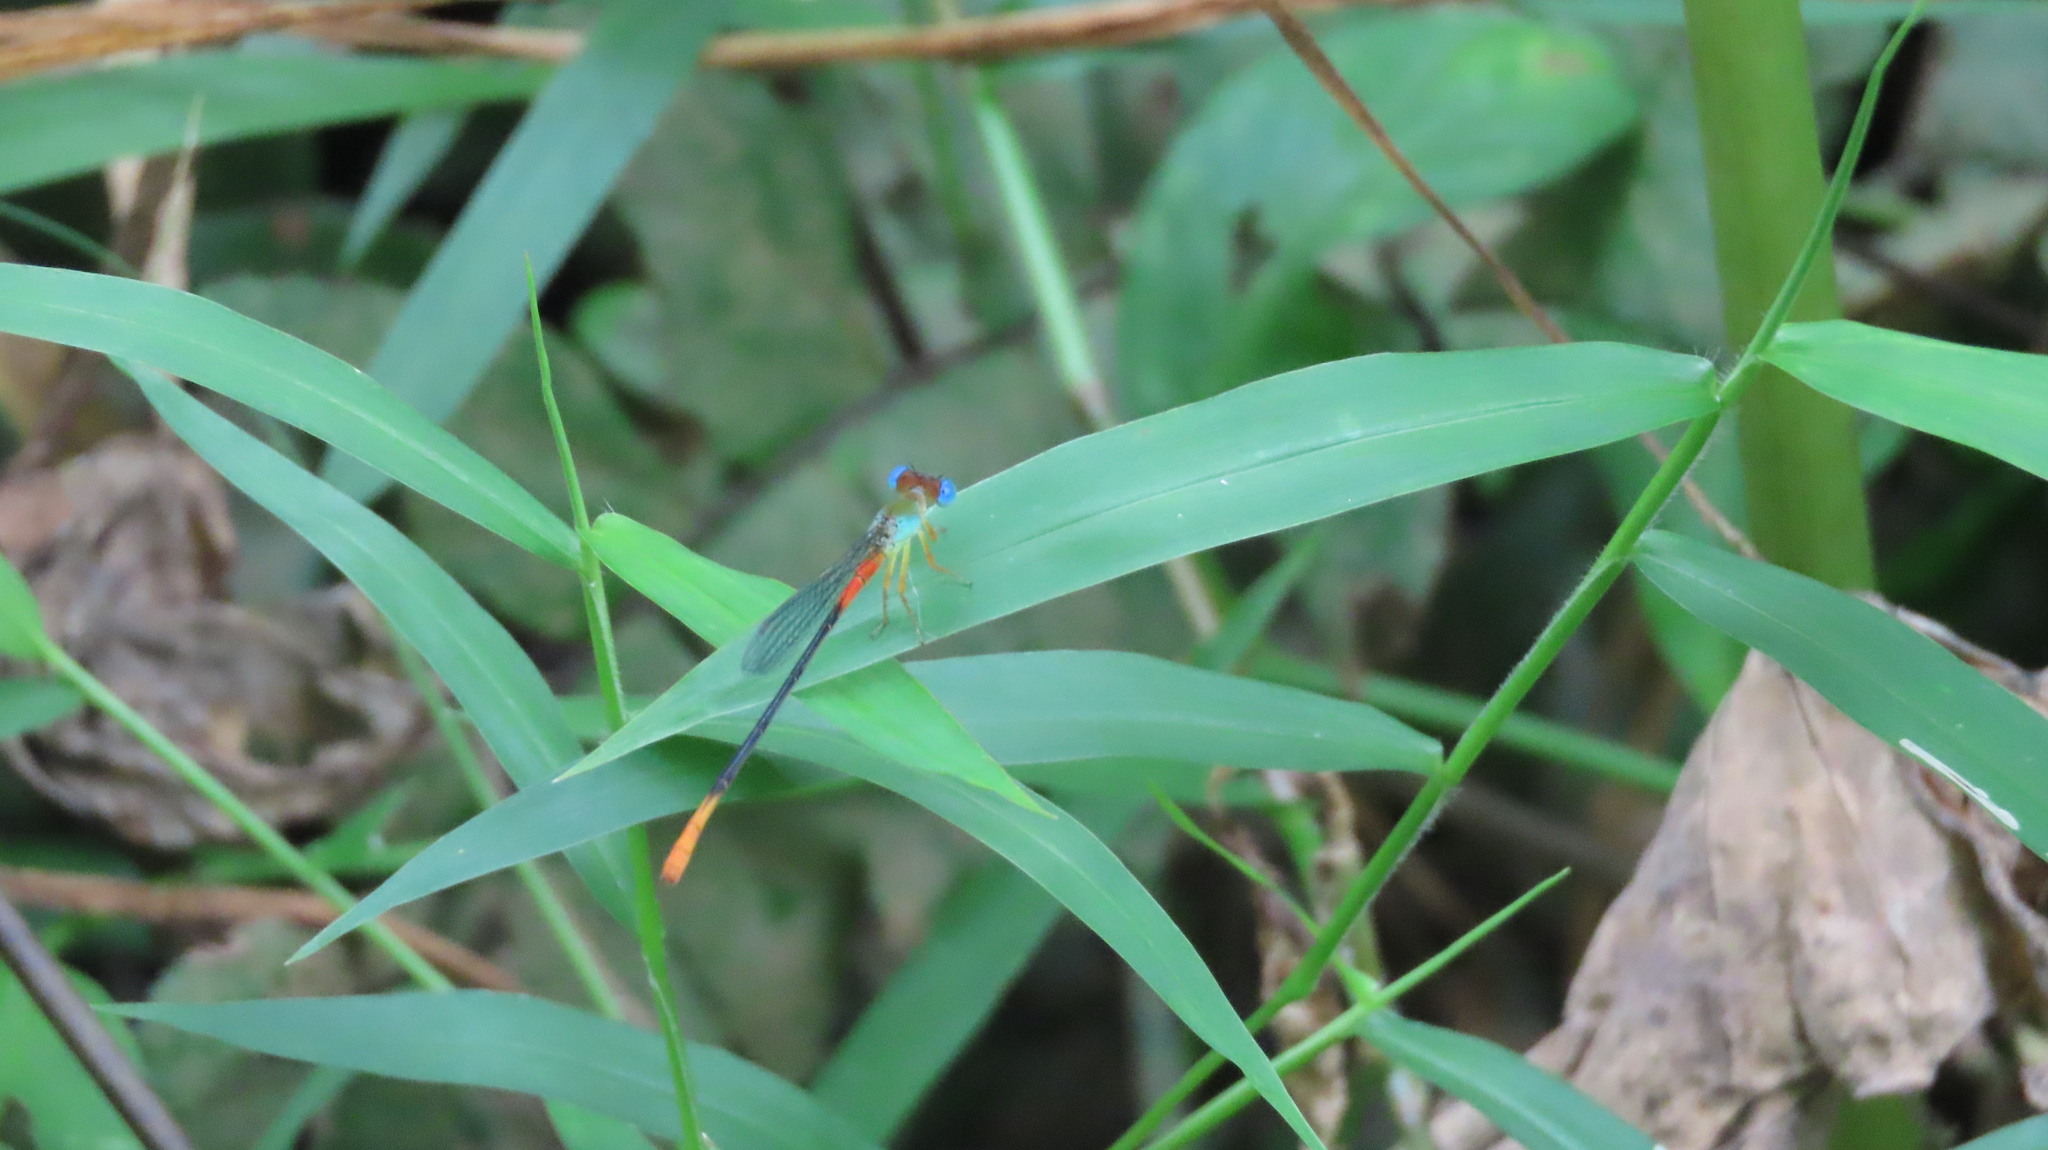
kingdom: Animalia
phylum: Arthropoda
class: Insecta
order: Odonata
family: Coenagrionidae
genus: Ceriagrion
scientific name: Ceriagrion cerinorubellum
